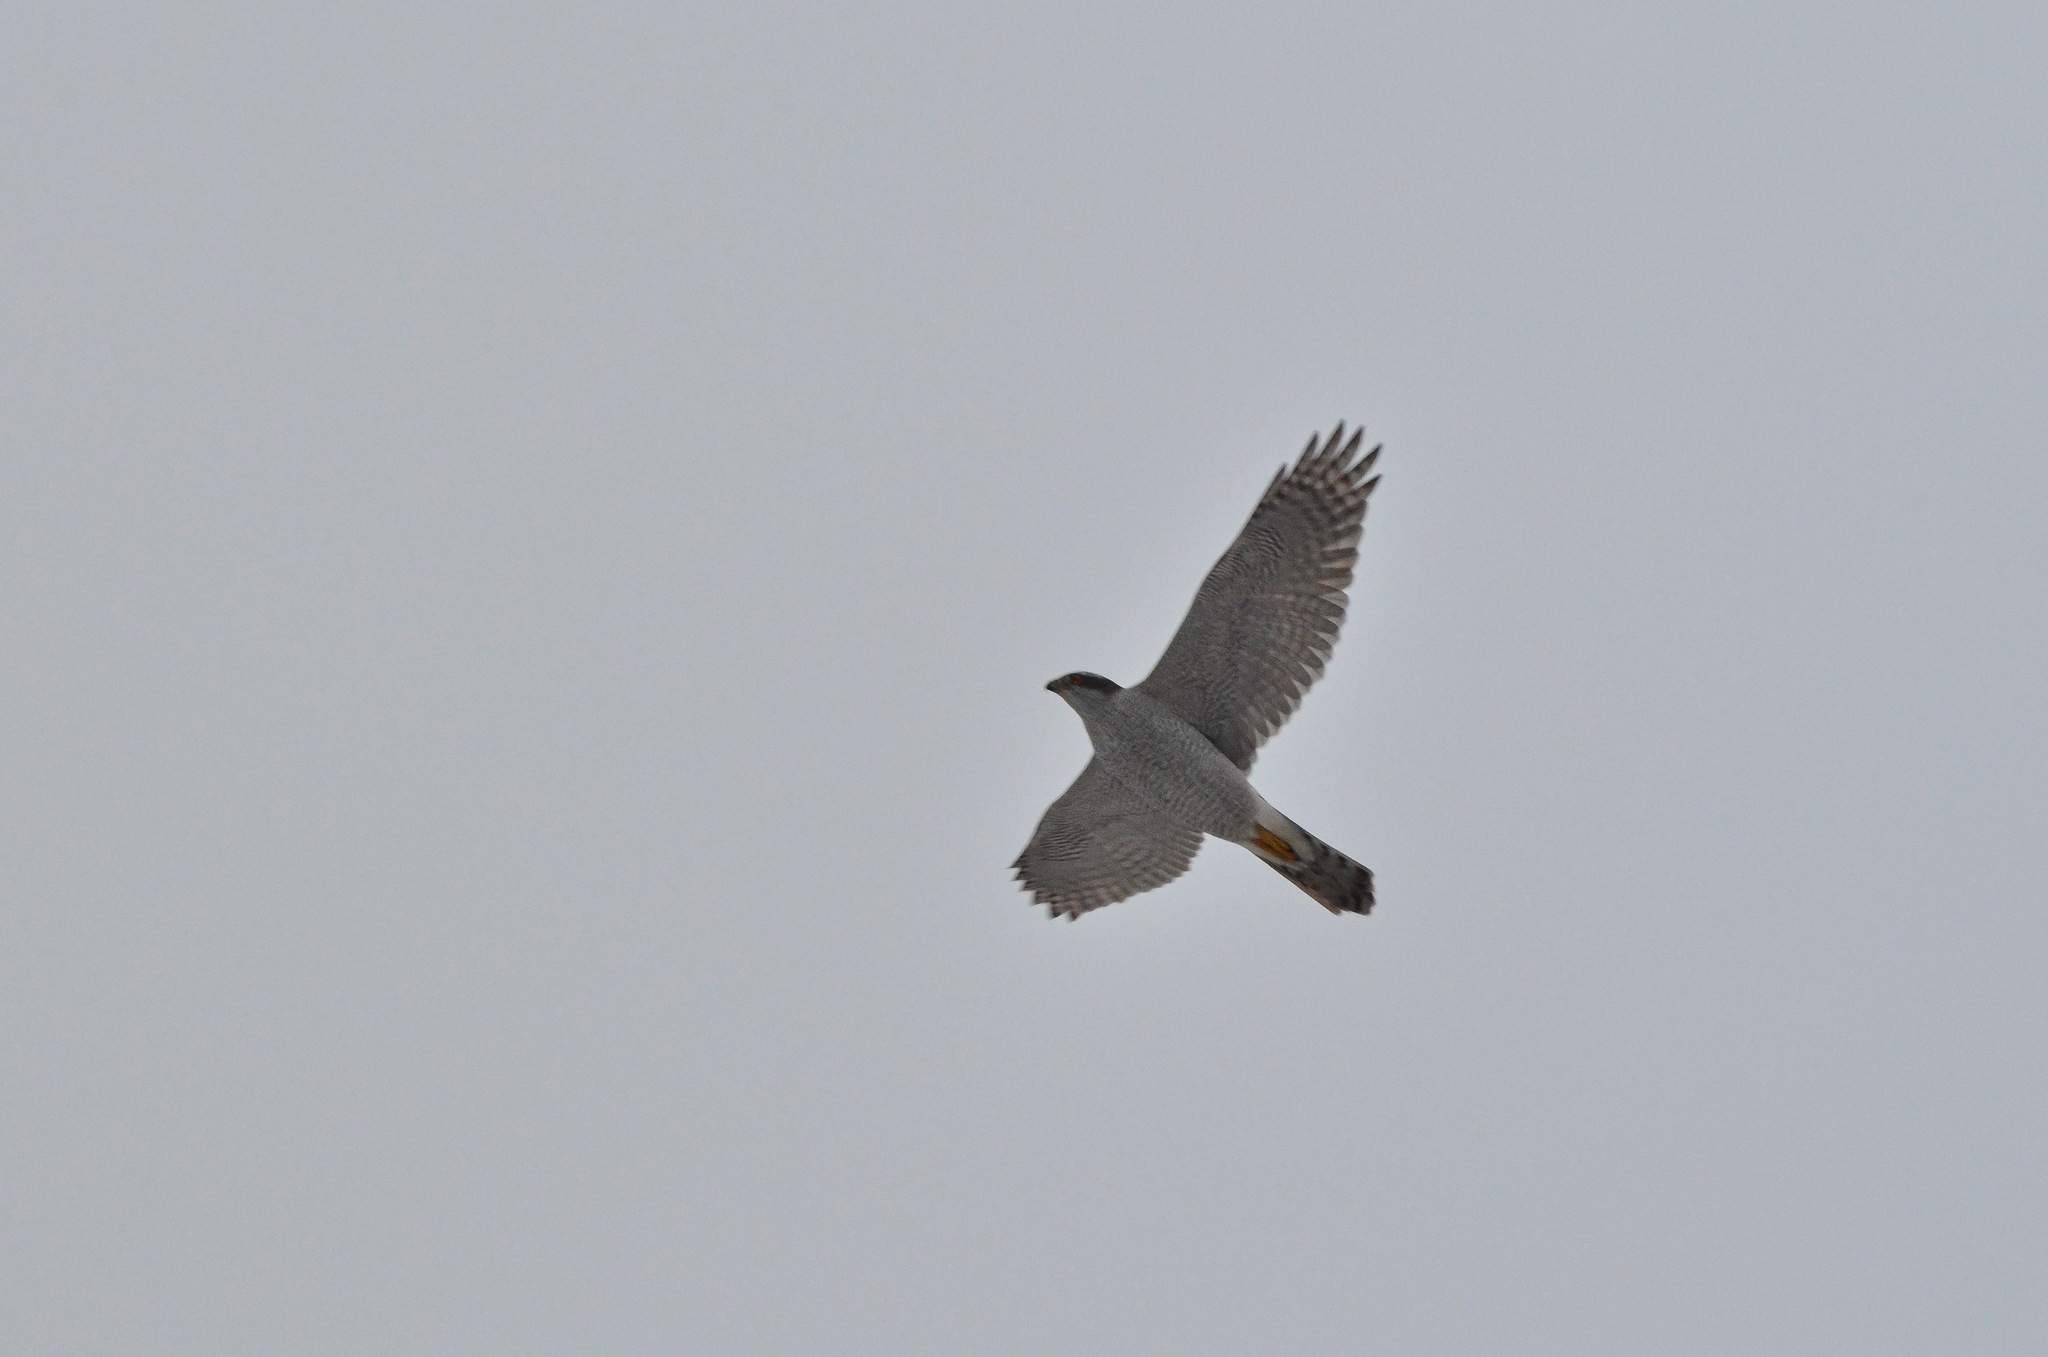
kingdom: Animalia
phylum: Chordata
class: Aves
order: Accipitriformes
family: Accipitridae
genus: Accipiter
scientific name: Accipiter gentilis
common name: Northern goshawk
